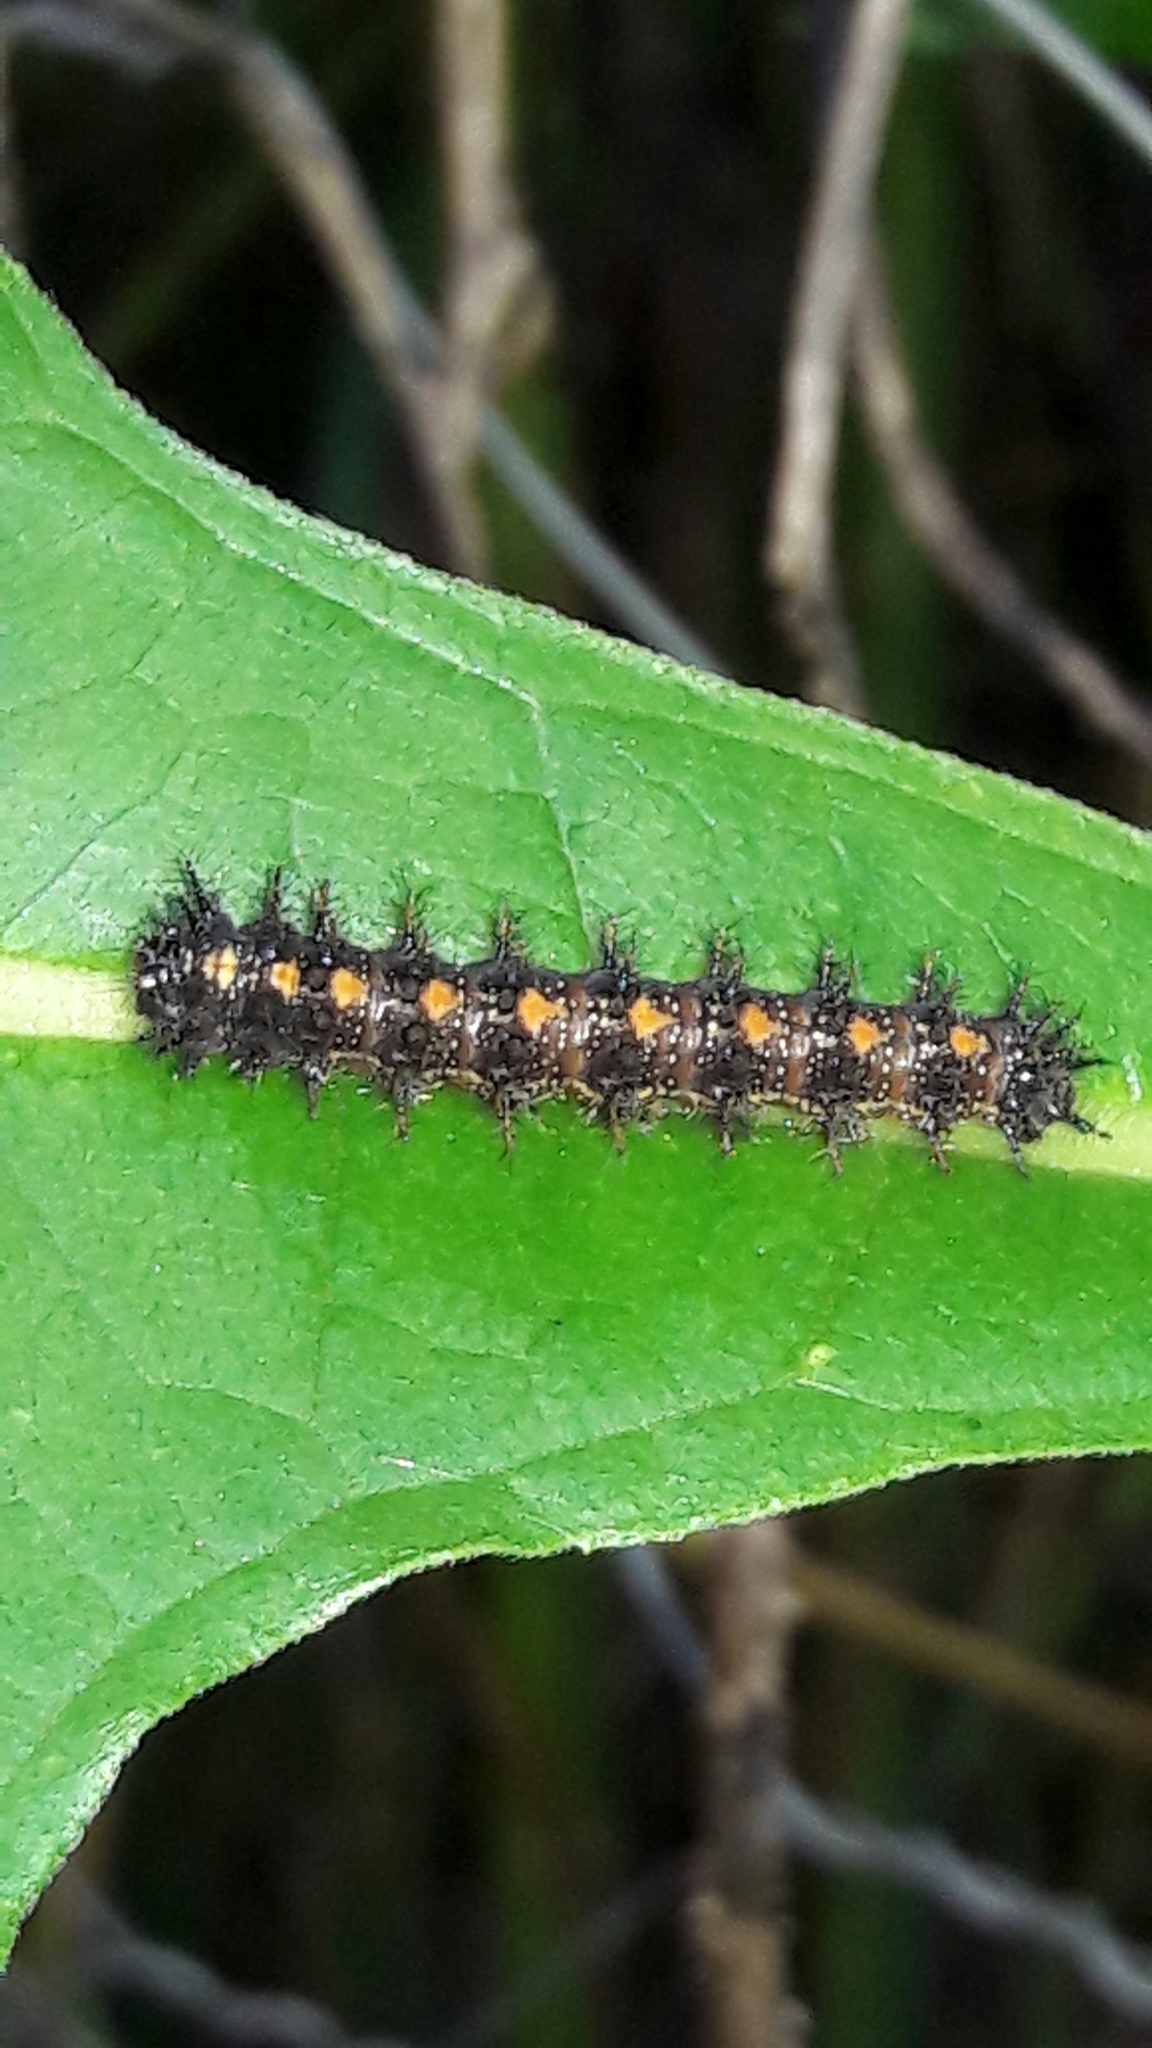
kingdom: Animalia
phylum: Arthropoda
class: Insecta
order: Lepidoptera
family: Nymphalidae
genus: Chlosyne
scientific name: Chlosyne lacinia
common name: Bordered patch
